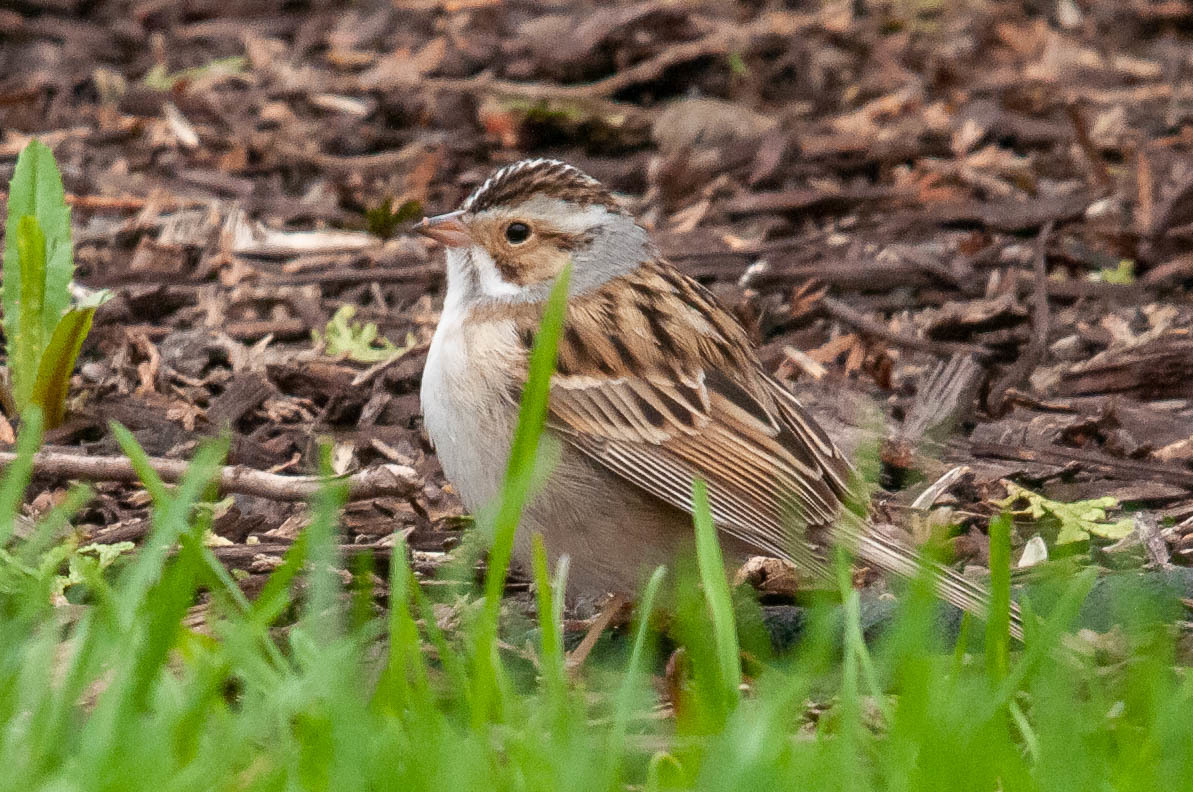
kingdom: Animalia
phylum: Chordata
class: Aves
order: Passeriformes
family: Passerellidae
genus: Spizella
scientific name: Spizella pallida
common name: Clay-colored sparrow
